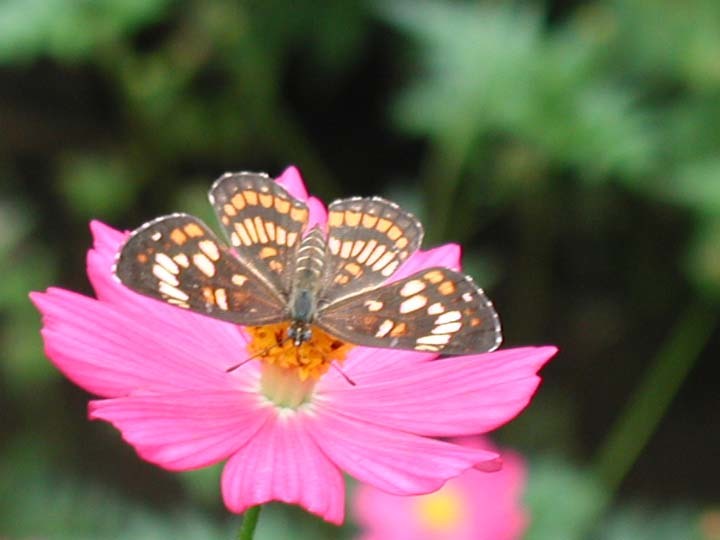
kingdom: Animalia
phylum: Arthropoda
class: Insecta
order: Lepidoptera
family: Nymphalidae
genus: Thessalia
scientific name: Thessalia theona
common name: Nymphalid moth
